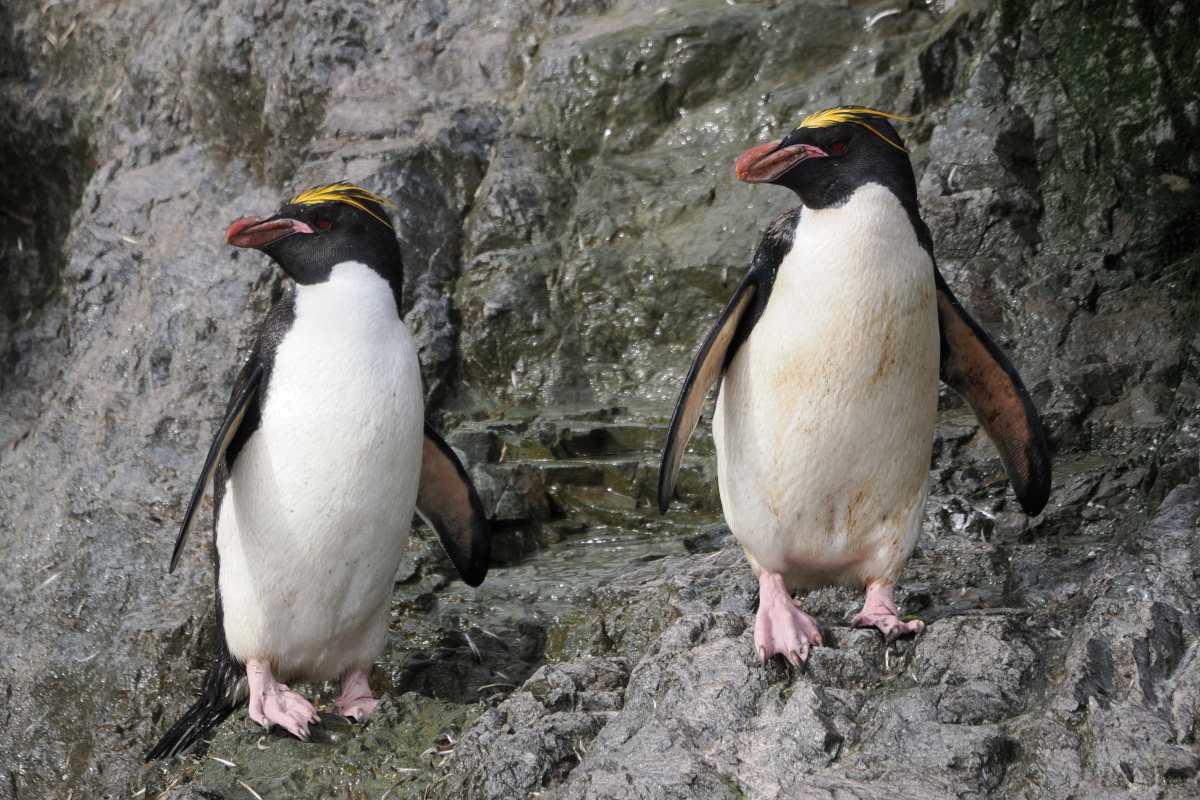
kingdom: Animalia
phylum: Chordata
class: Aves
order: Sphenisciformes
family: Spheniscidae
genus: Eudyptes
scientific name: Eudyptes chrysolophus
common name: Macaroni penguin
